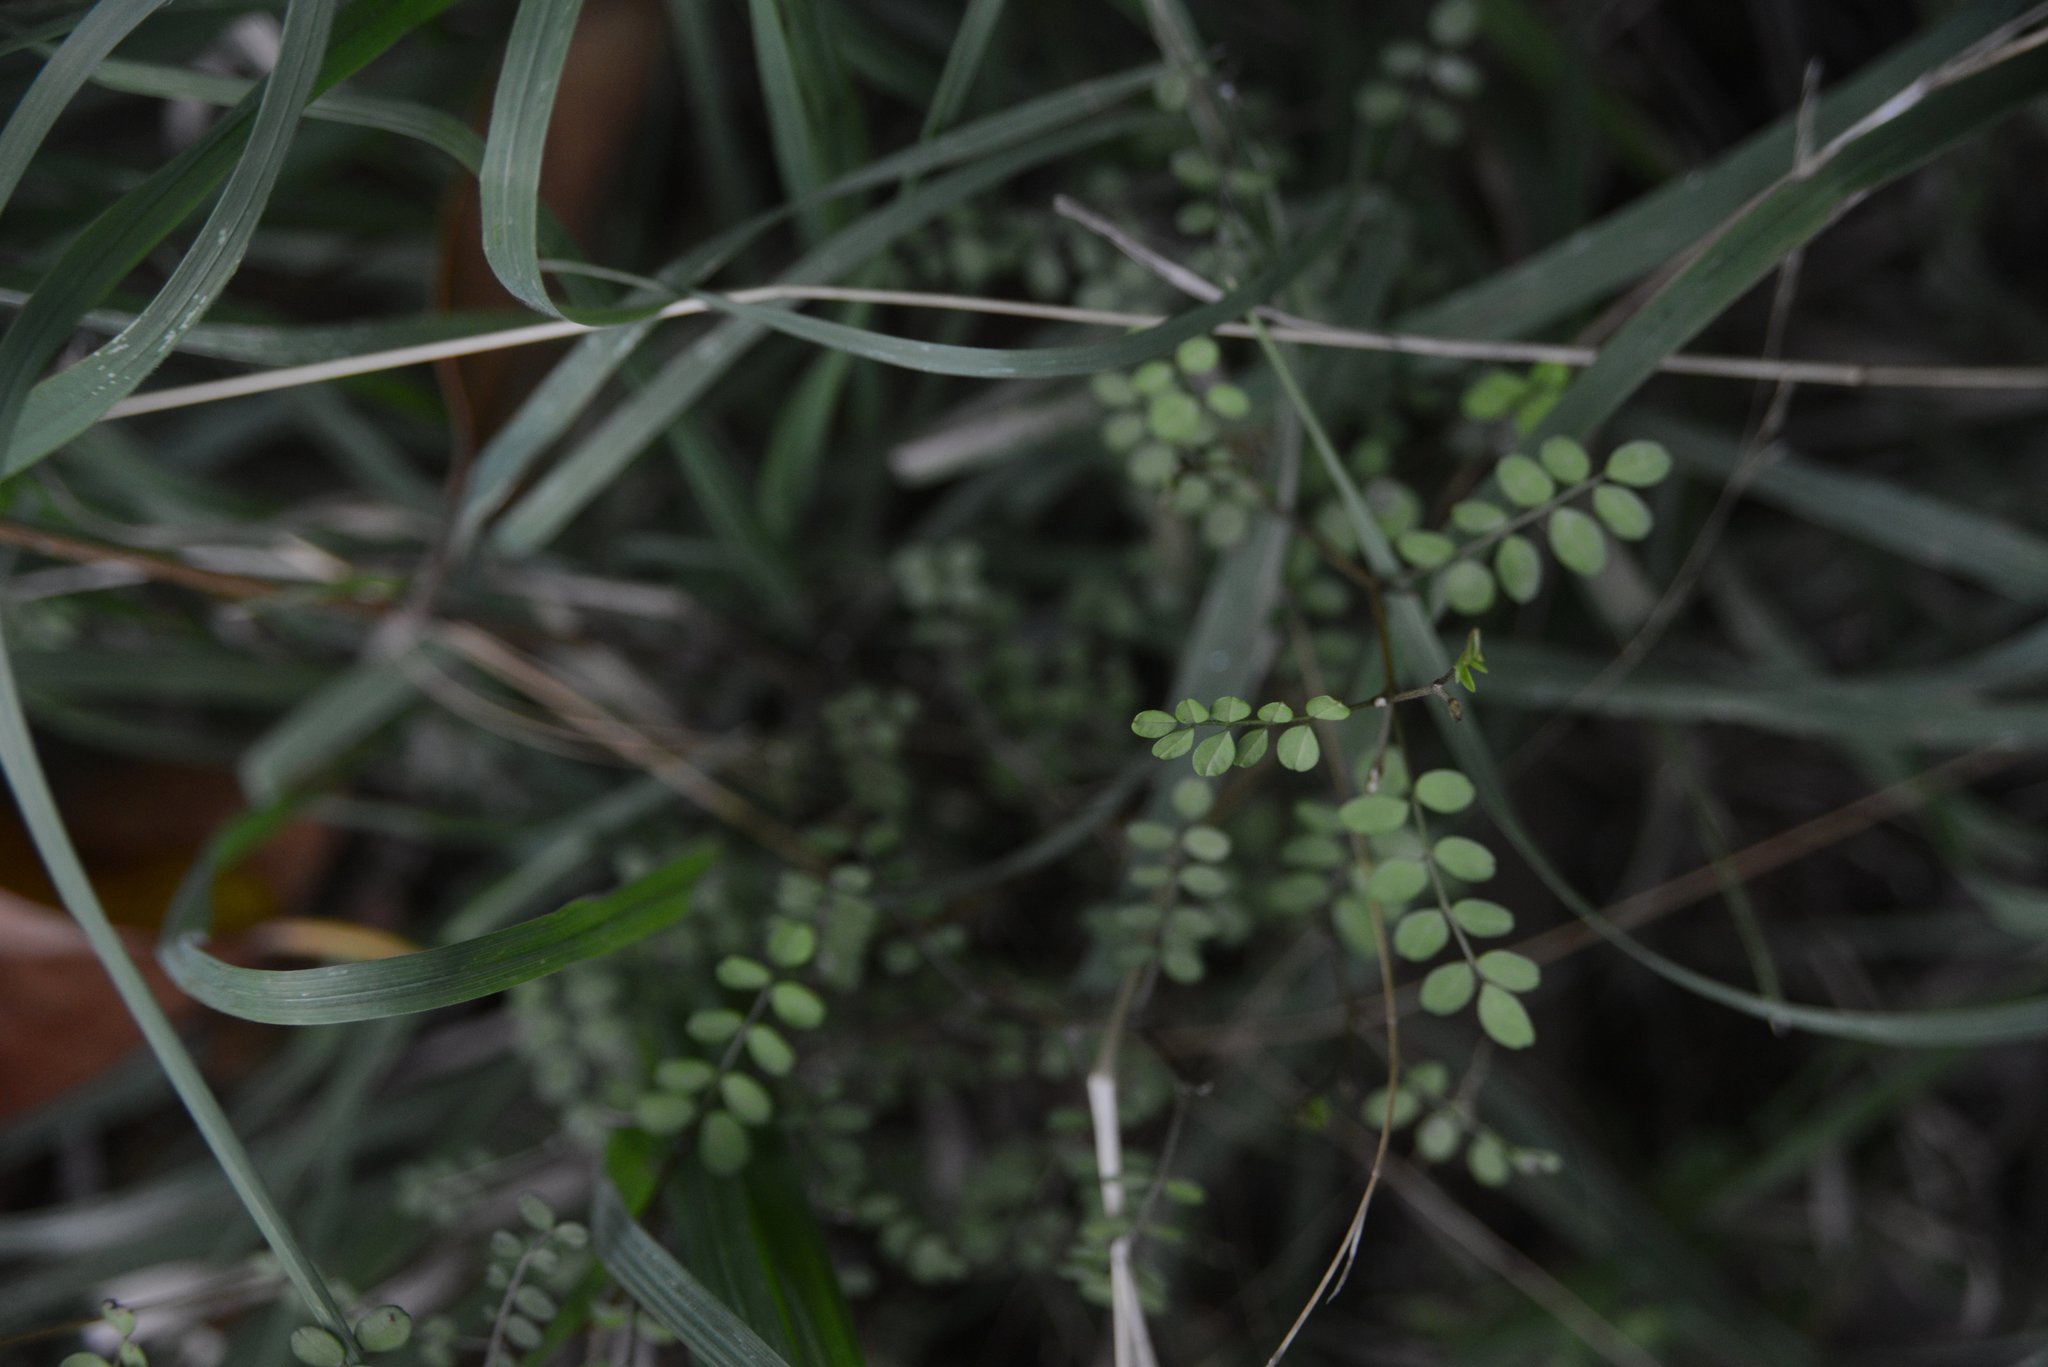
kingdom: Plantae
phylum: Tracheophyta
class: Magnoliopsida
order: Fabales
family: Fabaceae
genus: Sophora
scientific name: Sophora microphylla
